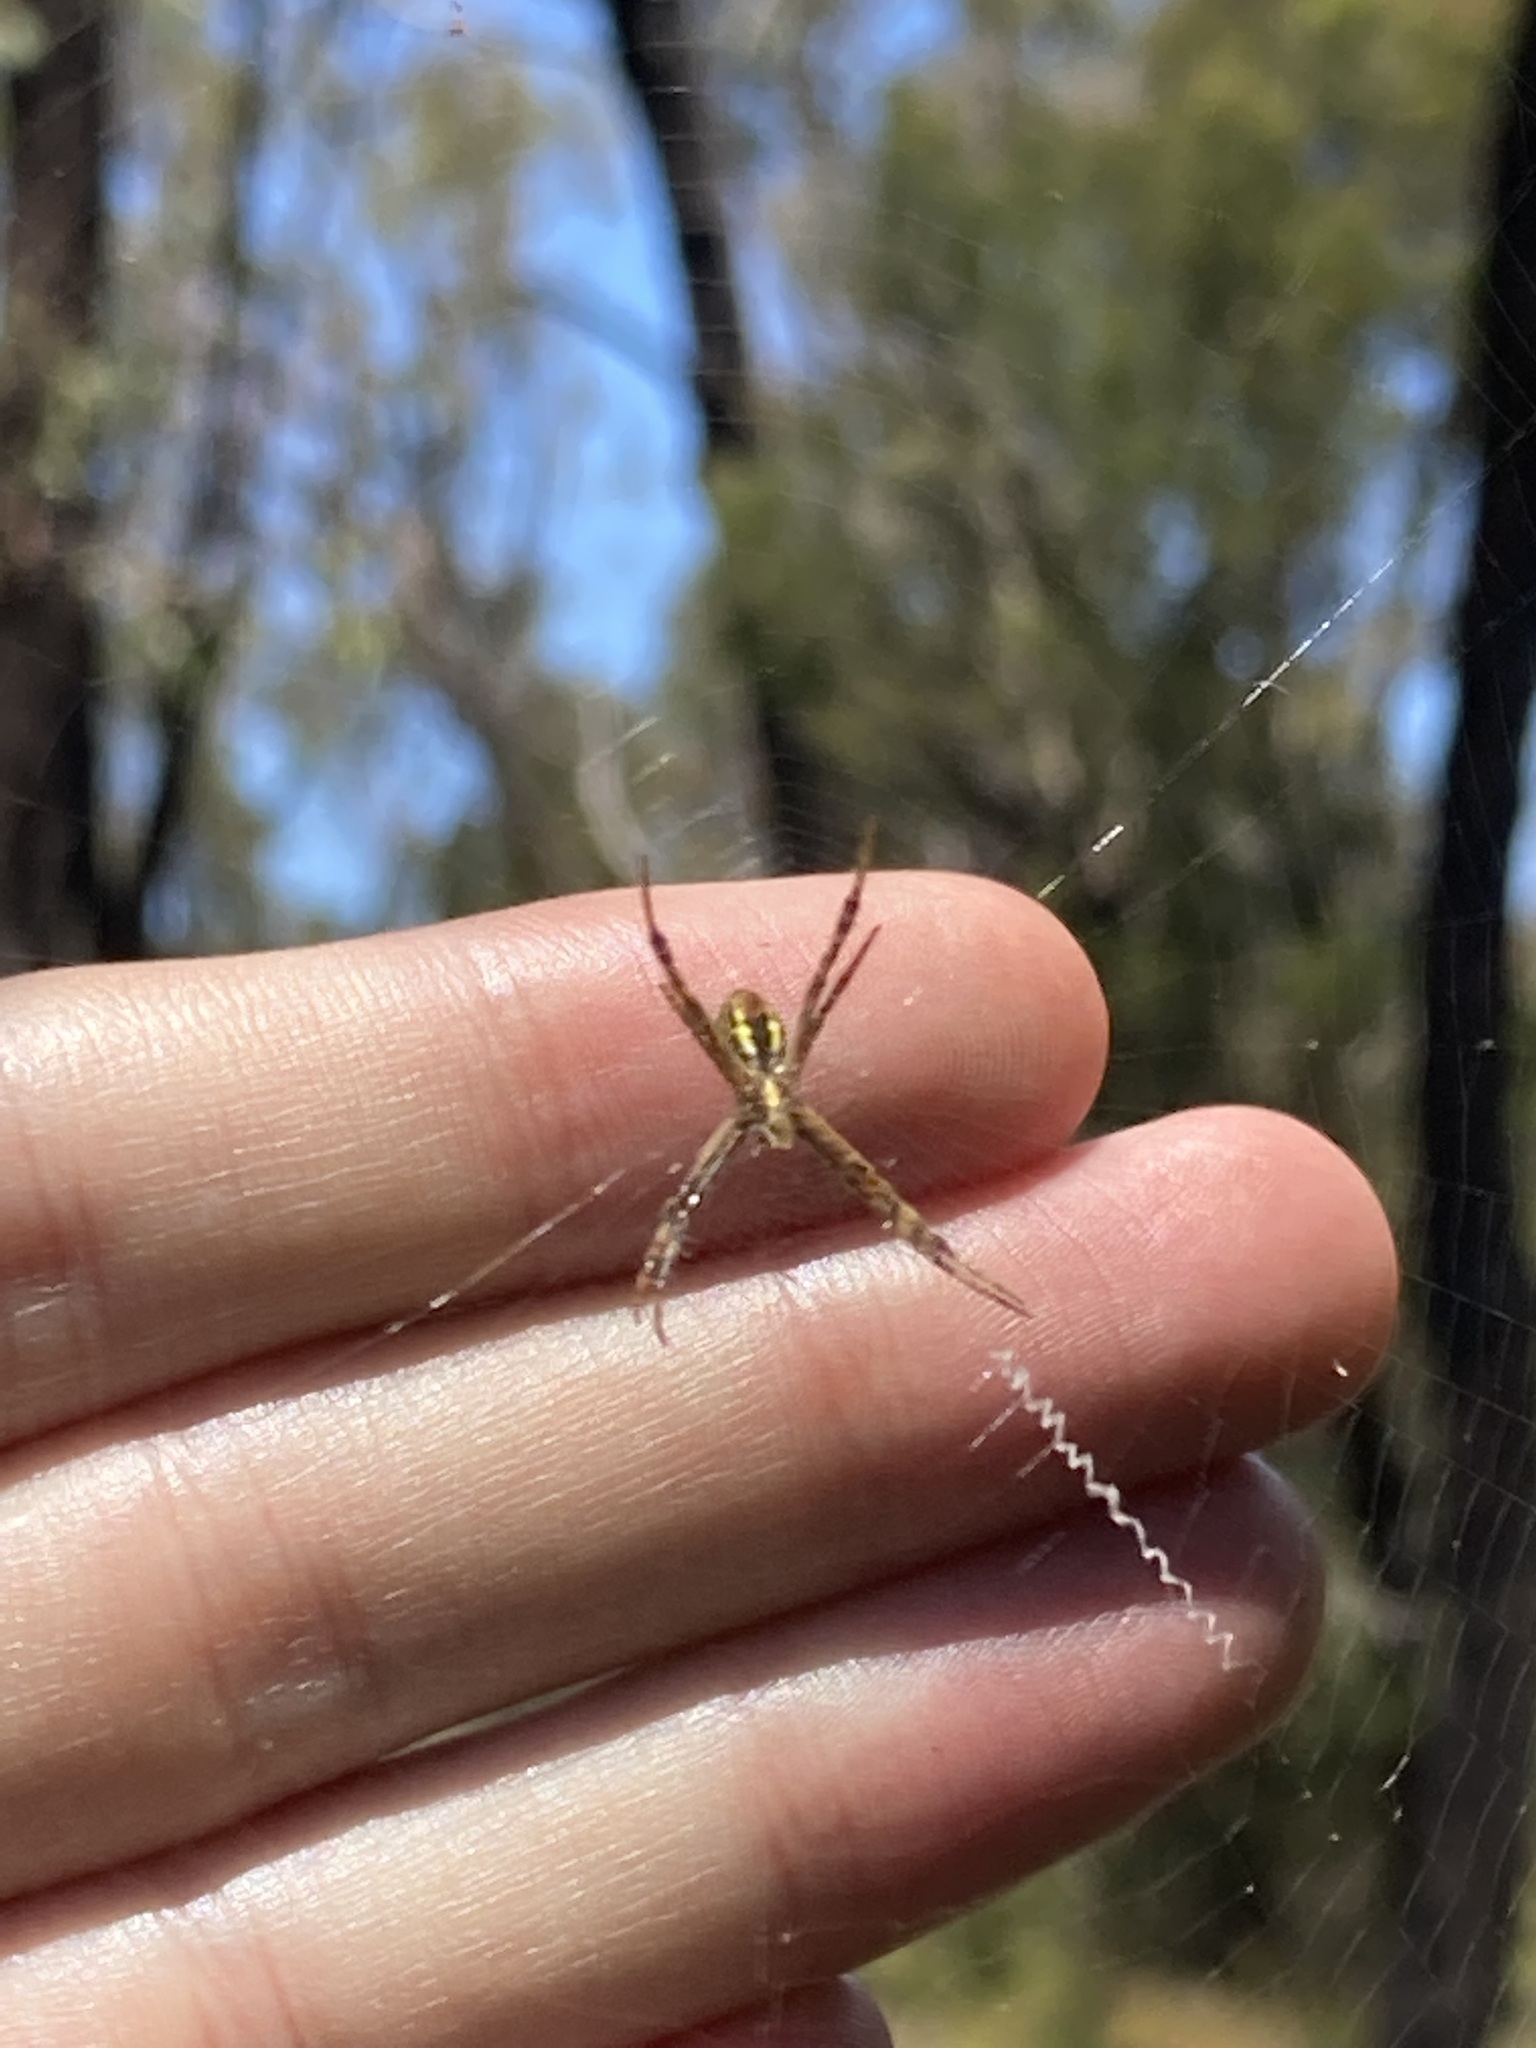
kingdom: Animalia
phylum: Arthropoda
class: Arachnida
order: Araneae
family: Araneidae
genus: Argiope
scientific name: Argiope keyserlingi
